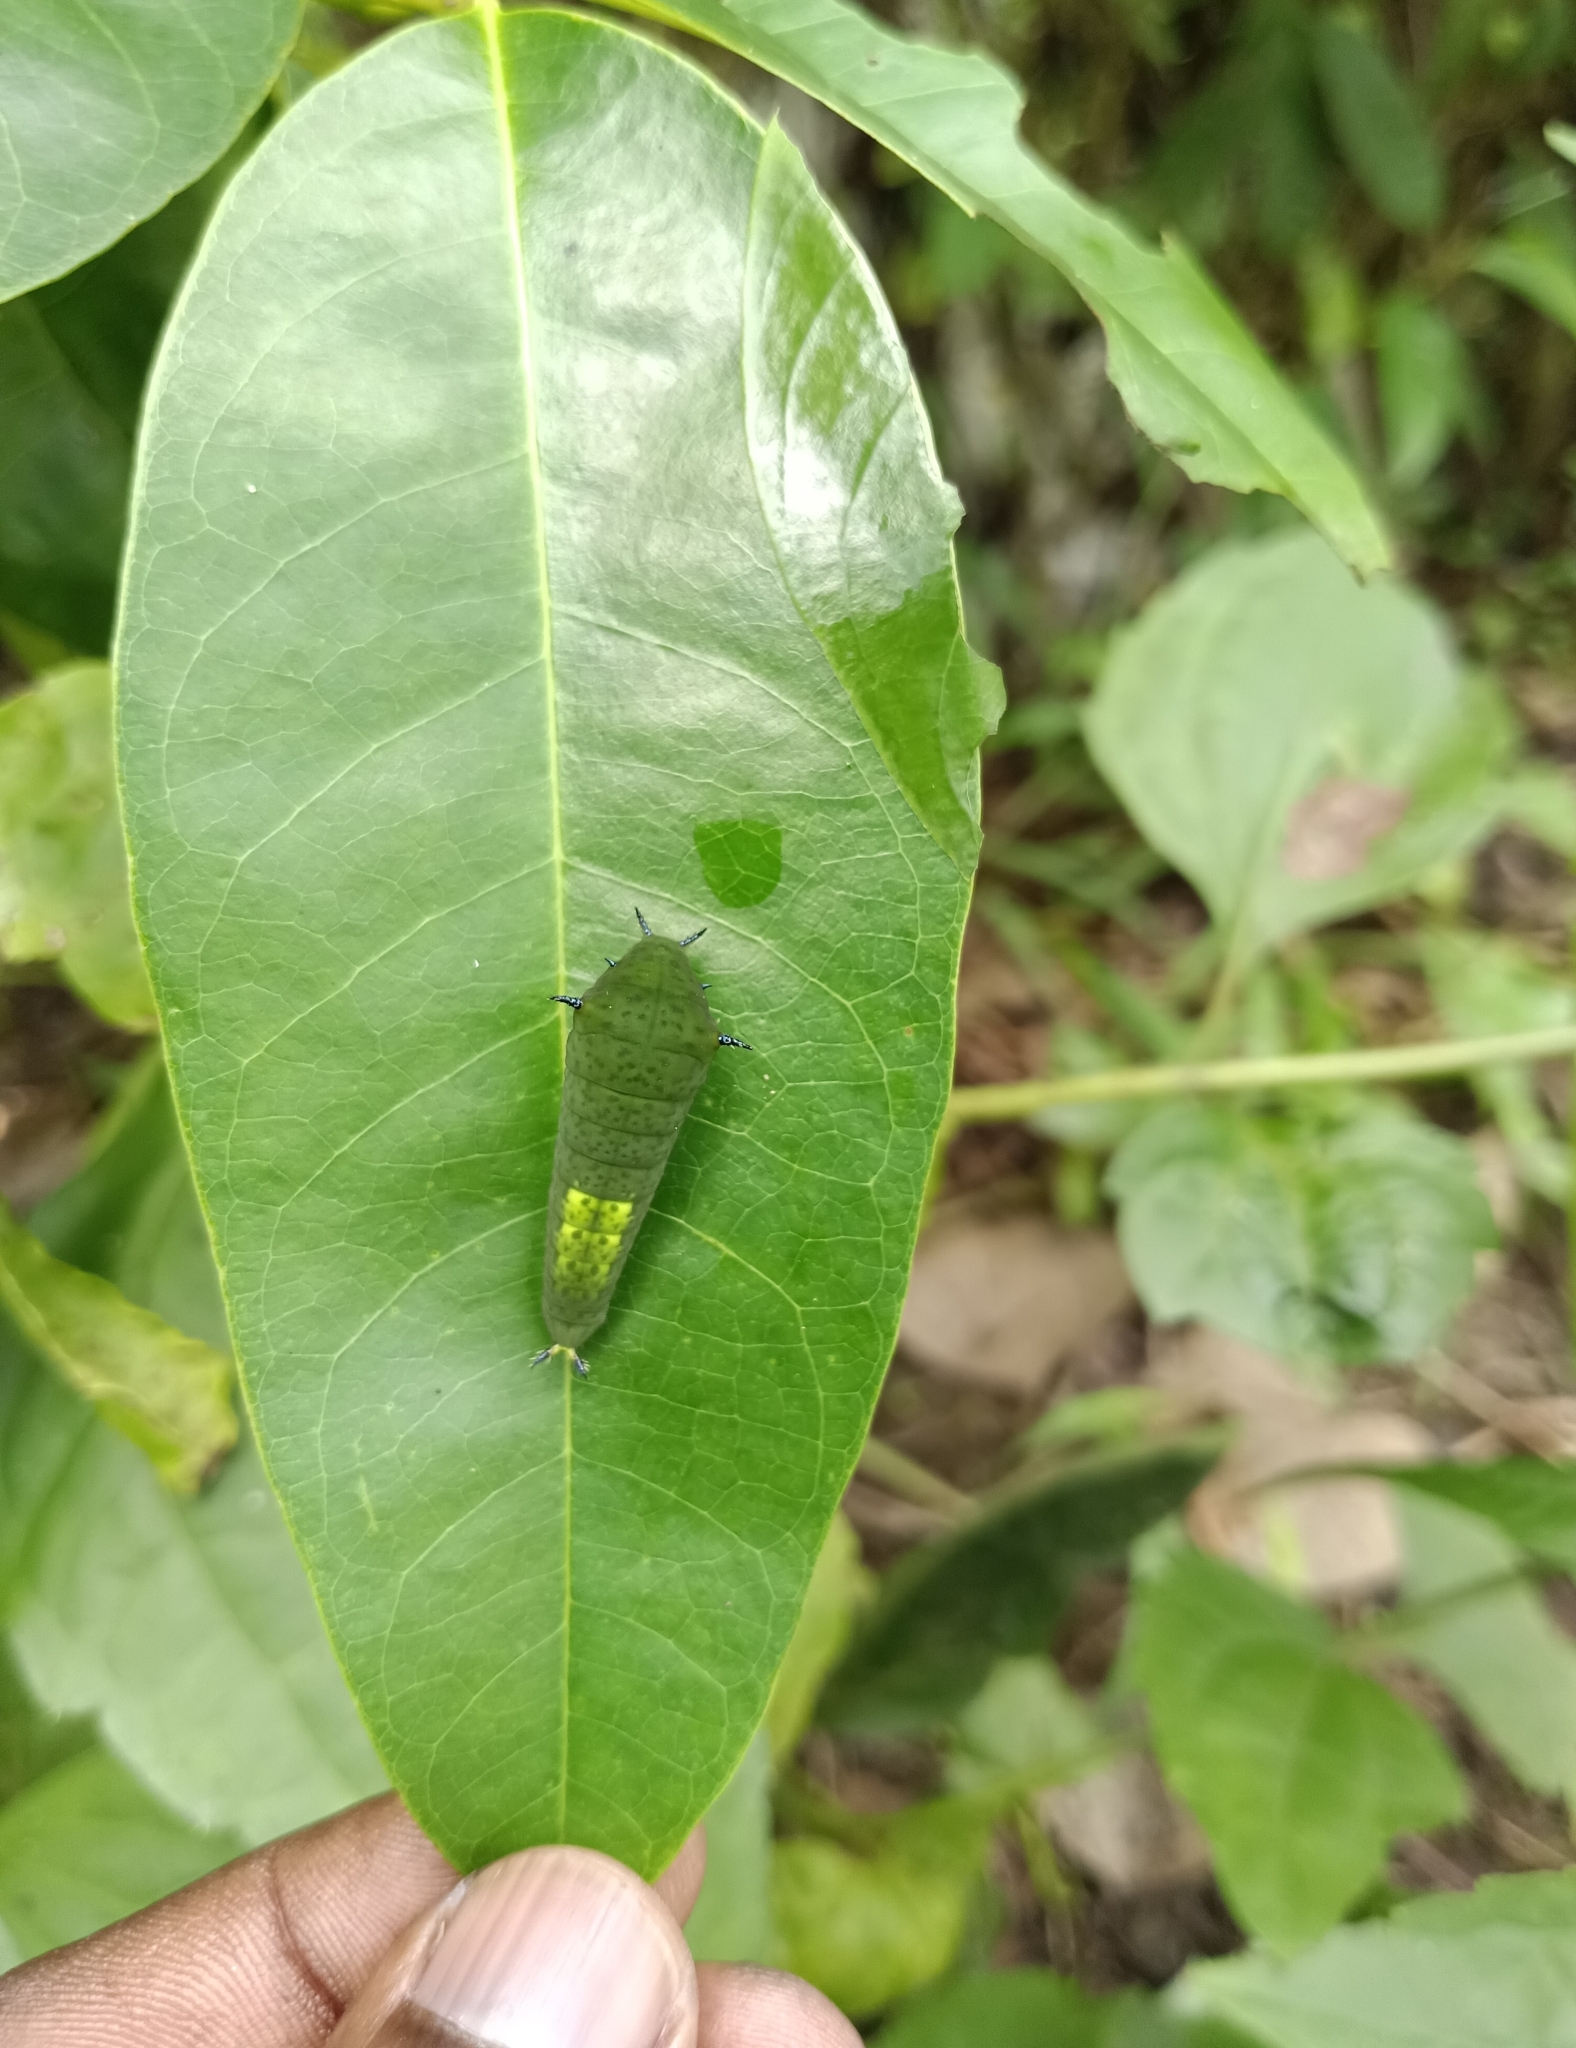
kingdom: Animalia
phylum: Arthropoda
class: Insecta
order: Lepidoptera
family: Papilionidae
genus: Graphium
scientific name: Graphium agamemnon
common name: Tailed jay
